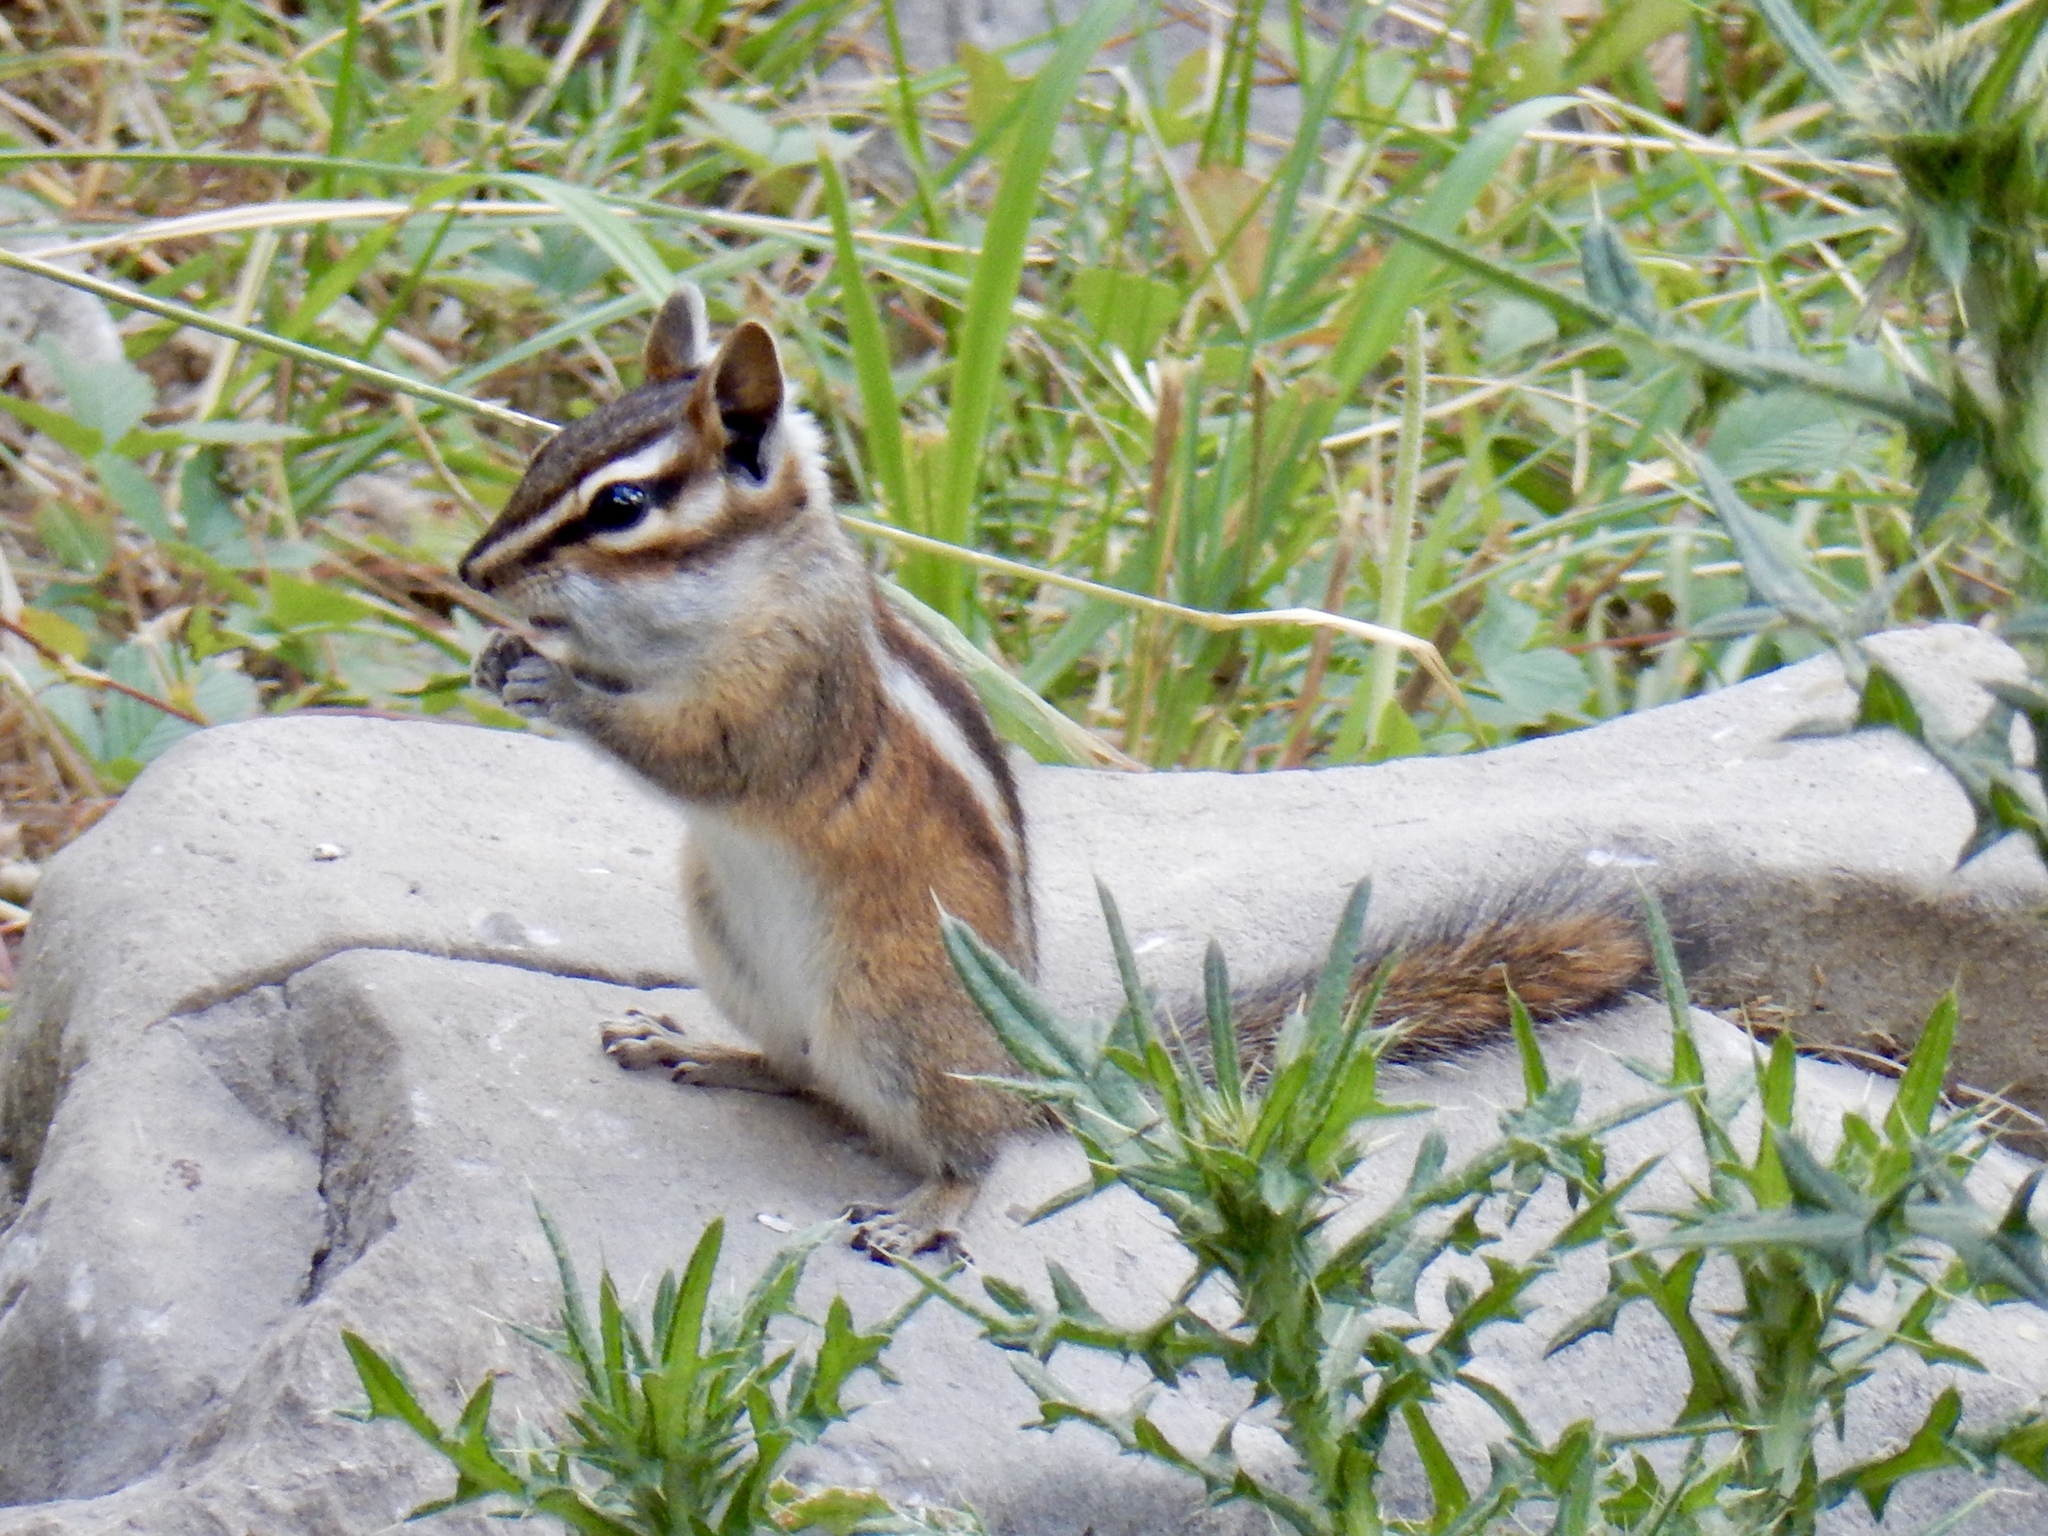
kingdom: Animalia
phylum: Chordata
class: Mammalia
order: Rodentia
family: Sciuridae
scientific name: Sciuridae
